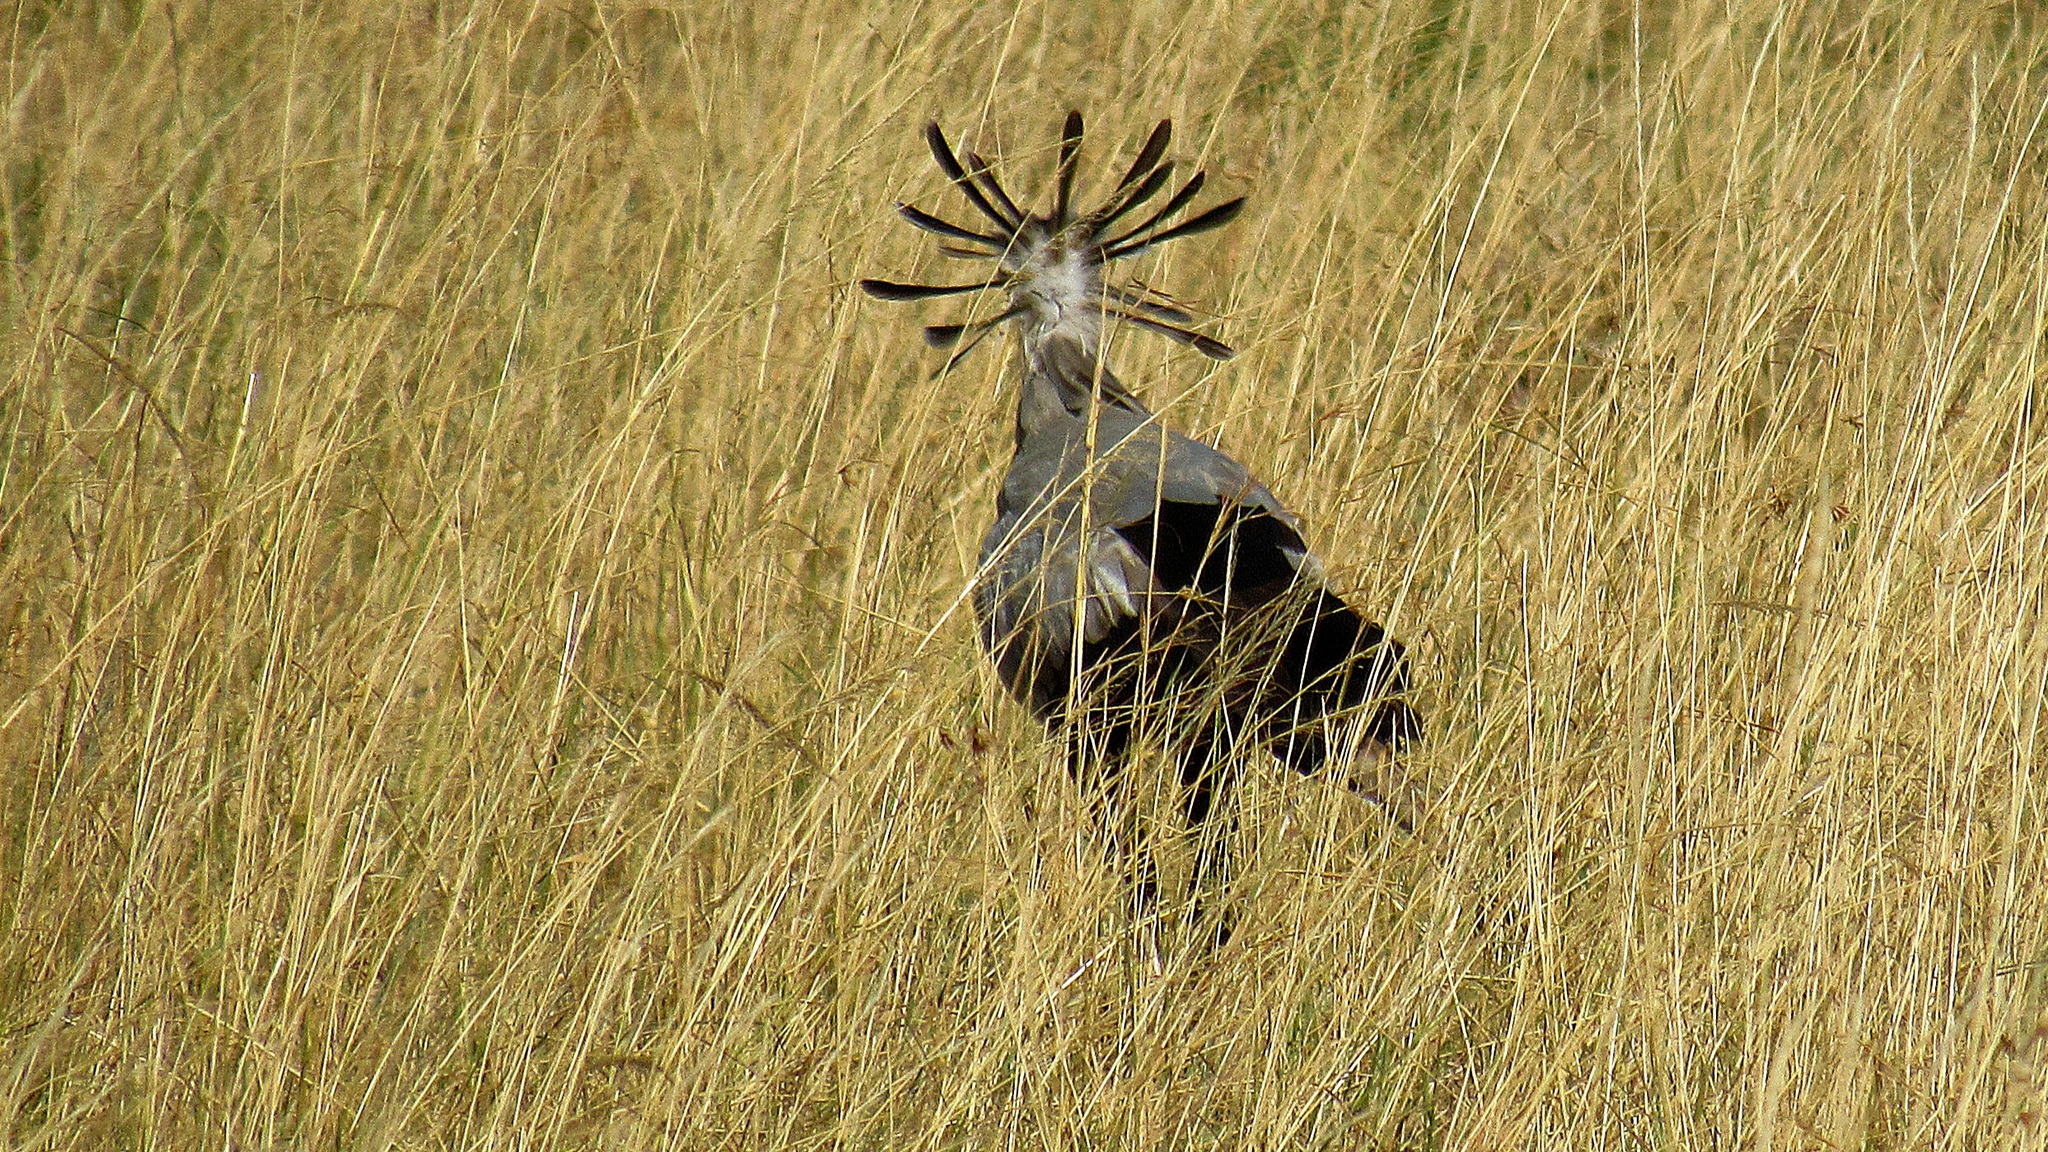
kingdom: Animalia
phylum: Chordata
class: Aves
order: Accipitriformes
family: Sagittariidae
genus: Sagittarius
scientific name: Sagittarius serpentarius
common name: Secretarybird
